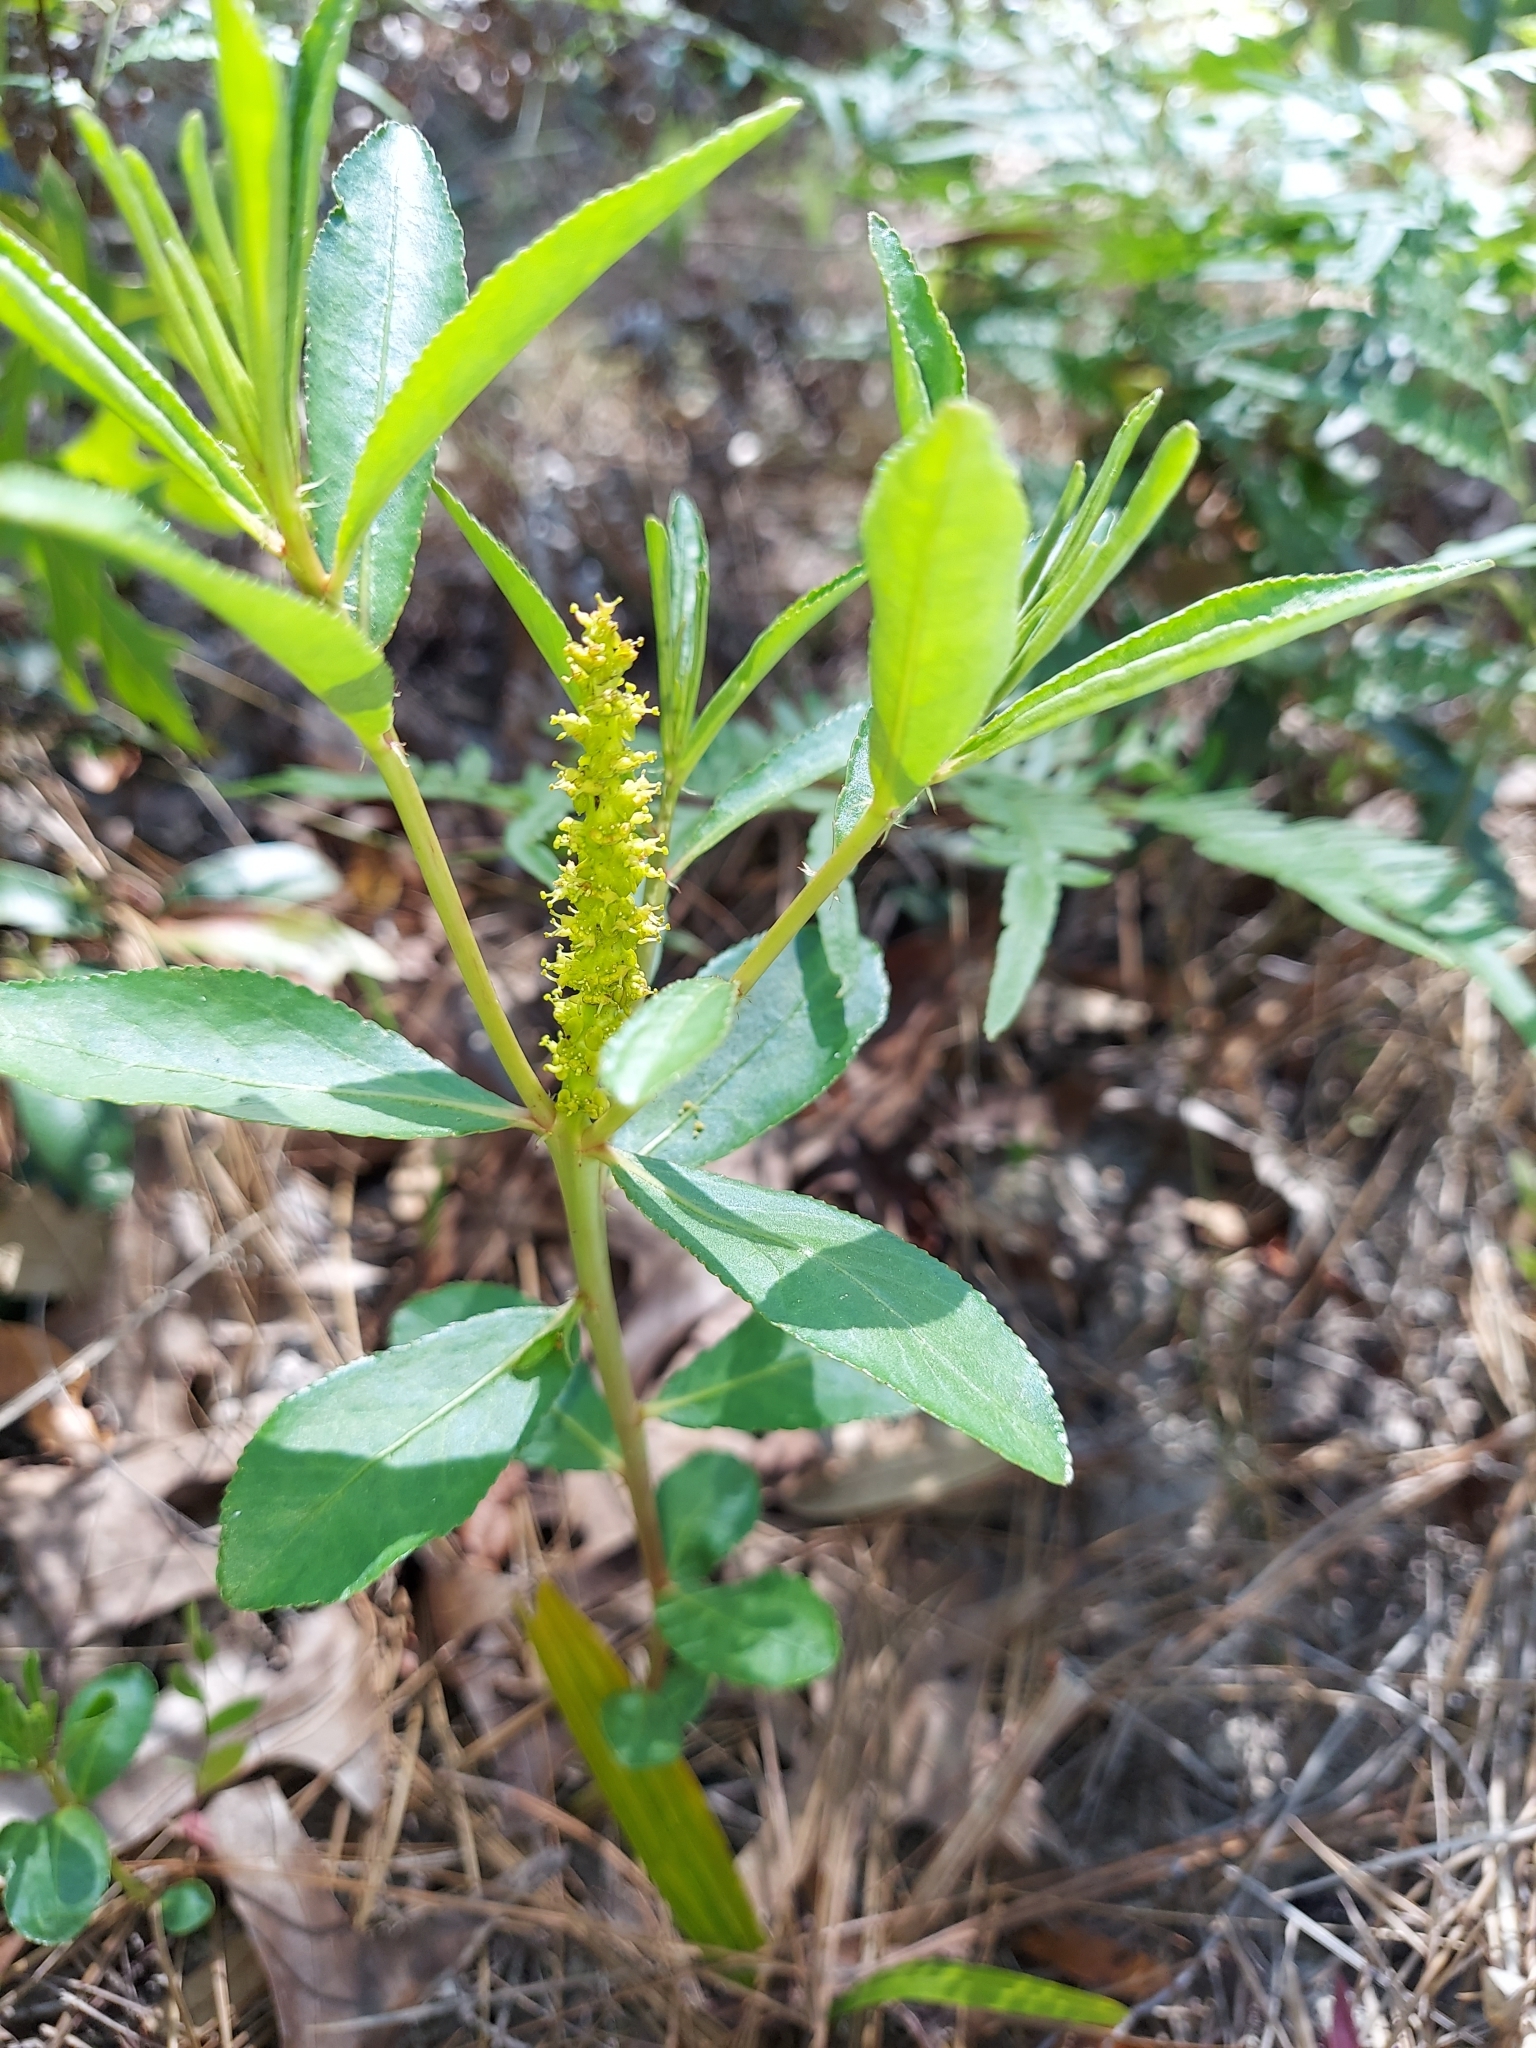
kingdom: Plantae
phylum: Tracheophyta
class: Magnoliopsida
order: Malpighiales
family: Euphorbiaceae
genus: Stillingia
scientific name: Stillingia sylvatica
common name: Queen's-delight
